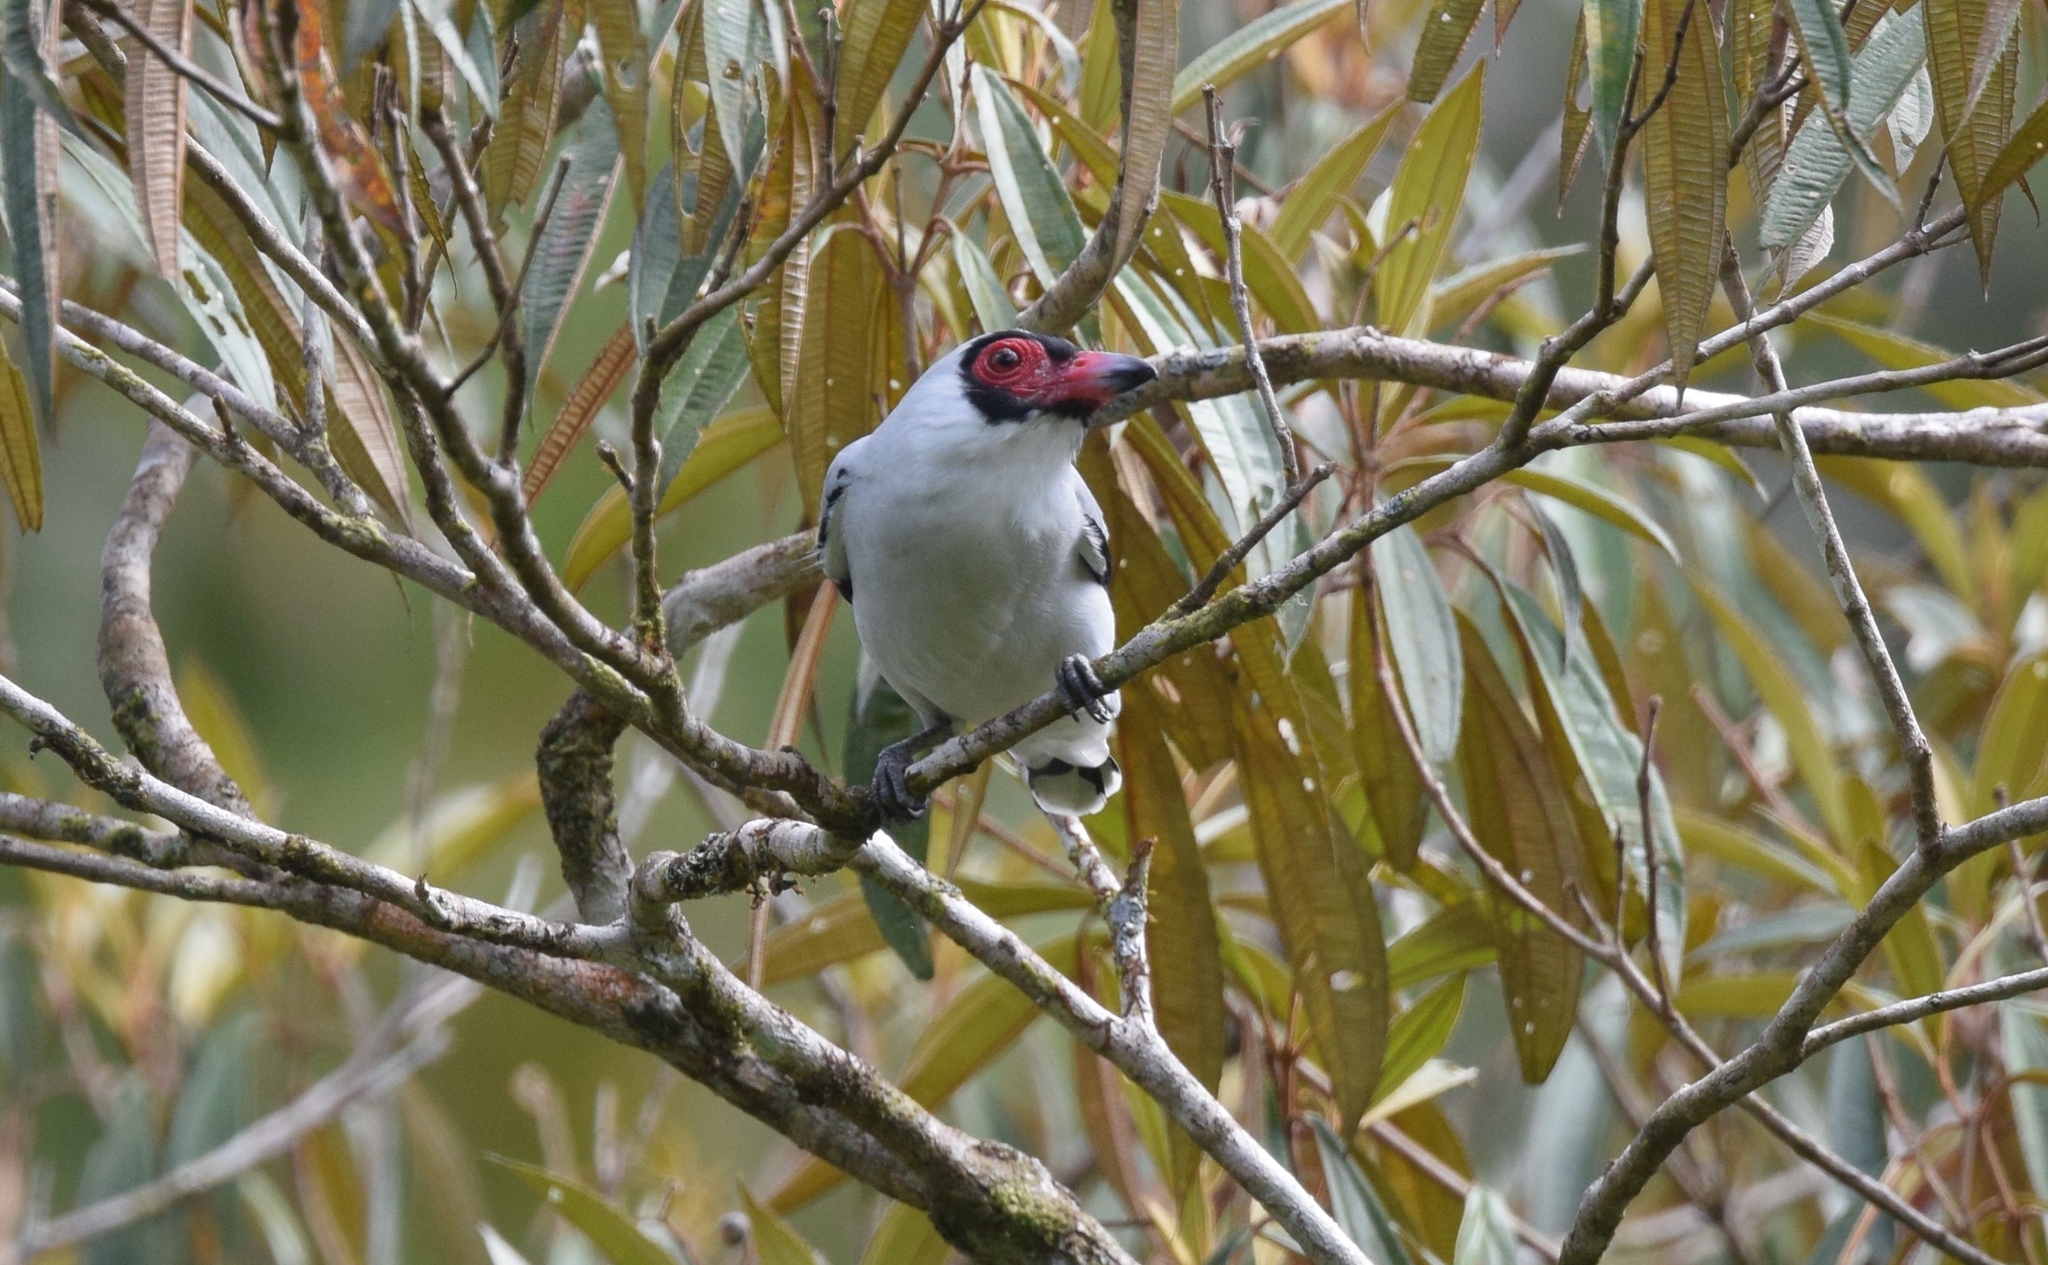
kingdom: Animalia
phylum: Chordata
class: Aves
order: Passeriformes
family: Cotingidae
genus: Tityra
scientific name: Tityra semifasciata
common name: Masked tityra
